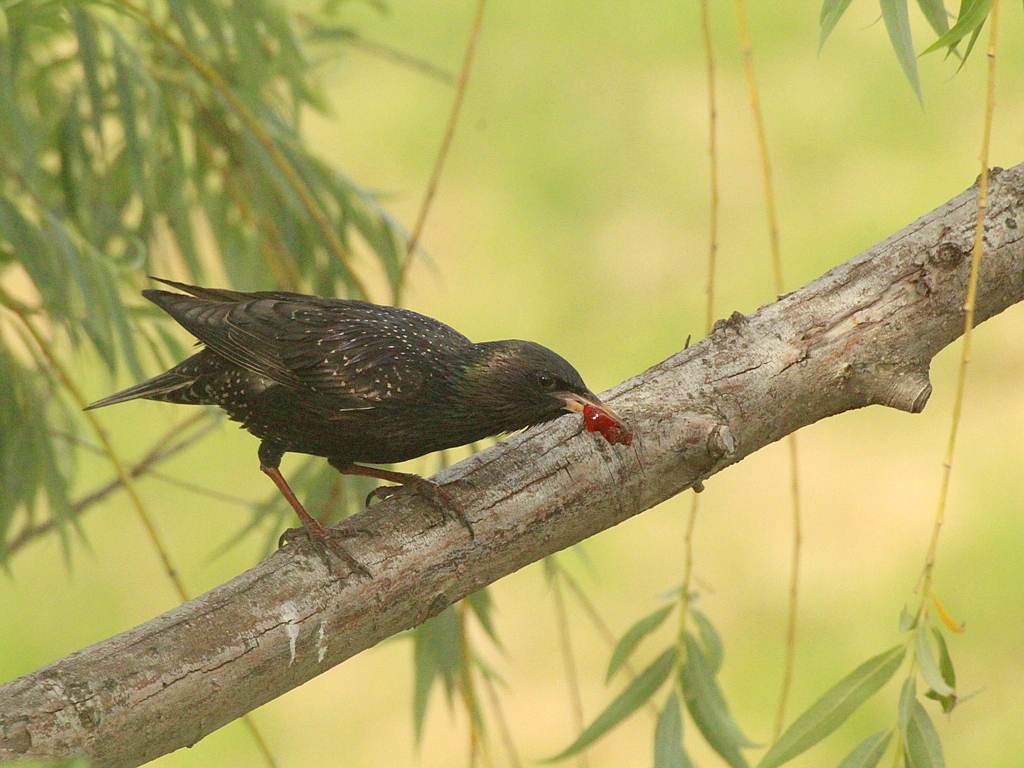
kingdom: Animalia
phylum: Chordata
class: Aves
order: Passeriformes
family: Sturnidae
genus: Sturnus
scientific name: Sturnus vulgaris
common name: Common starling
